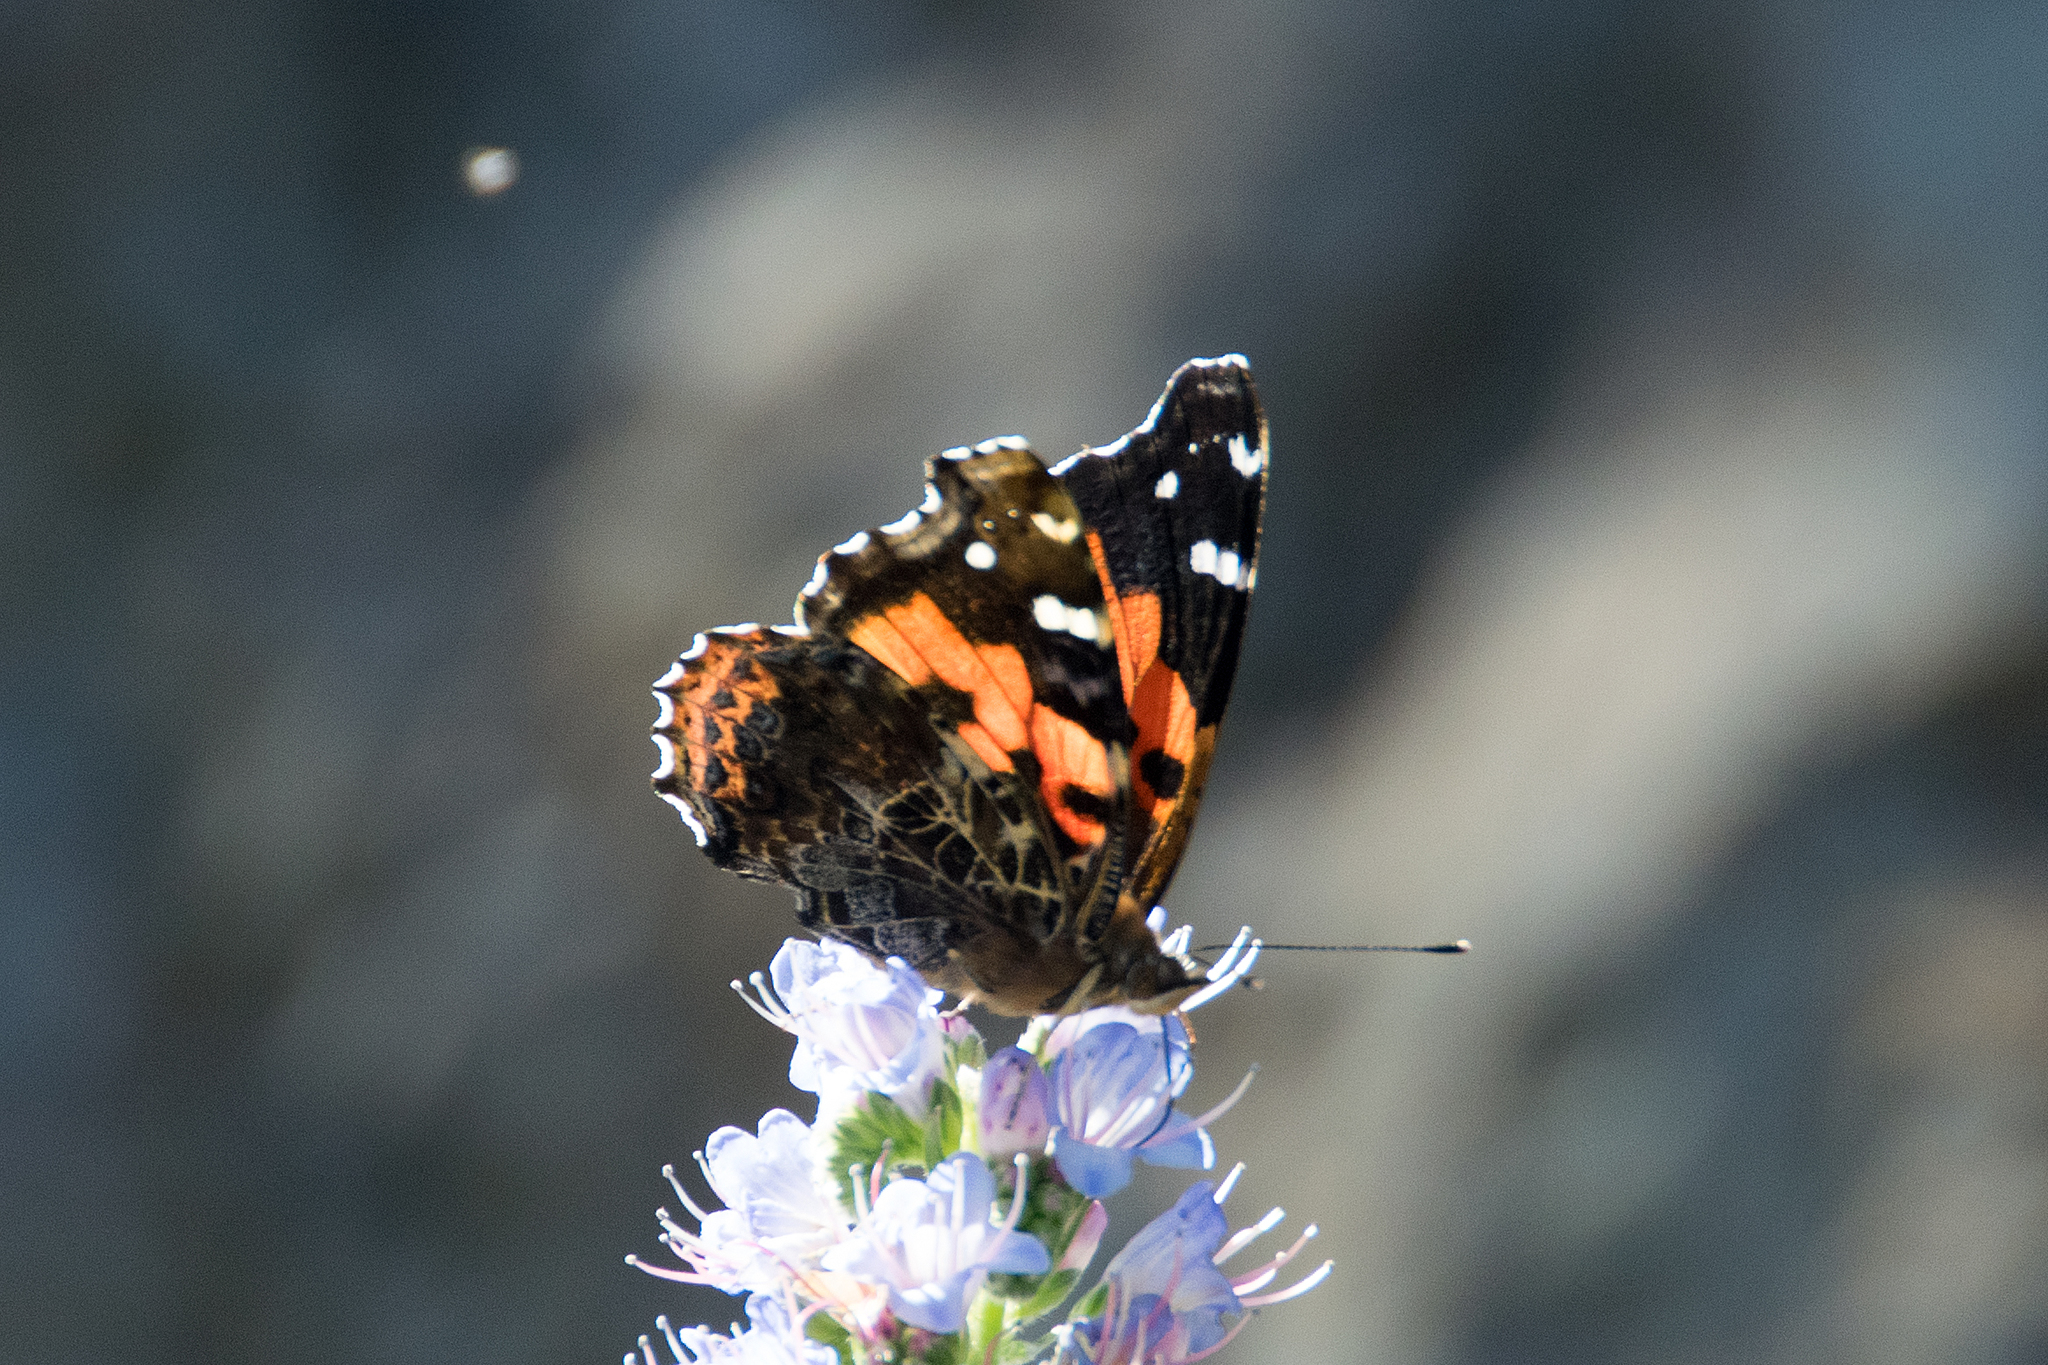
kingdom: Animalia
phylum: Arthropoda
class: Insecta
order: Lepidoptera
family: Nymphalidae
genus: Vanessa
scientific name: Vanessa vulcania
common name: Canary red admiral
